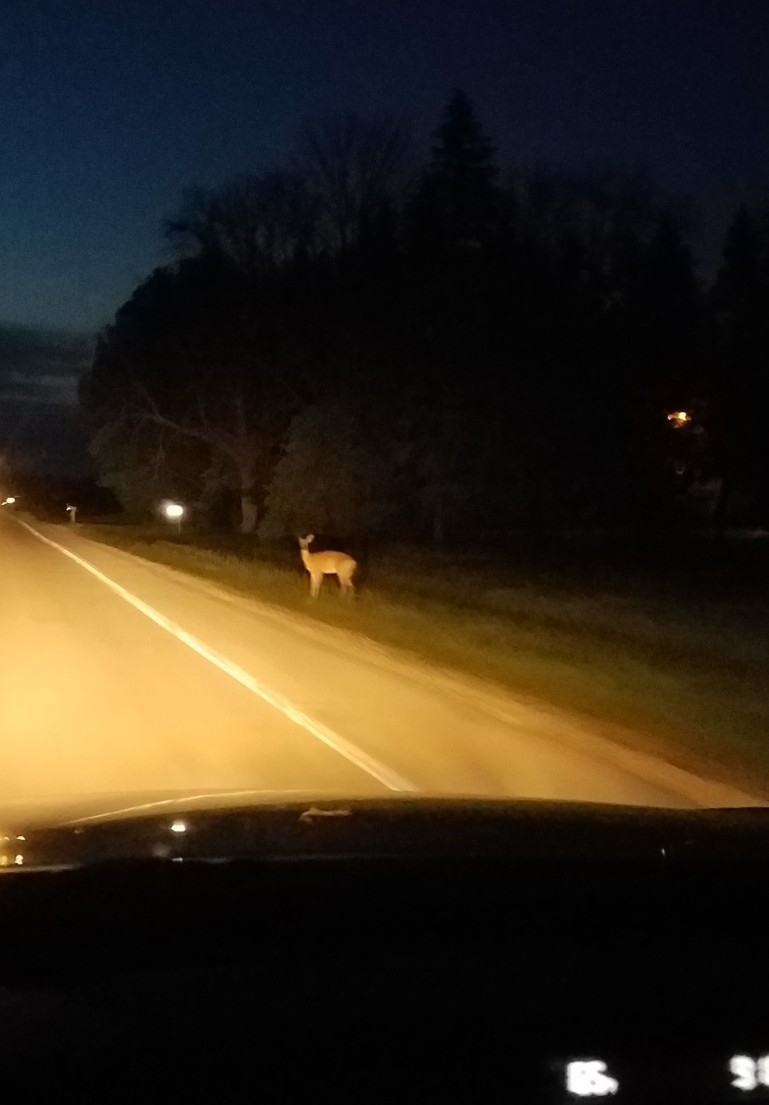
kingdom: Animalia
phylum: Chordata
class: Mammalia
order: Artiodactyla
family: Cervidae
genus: Odocoileus
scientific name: Odocoileus virginianus
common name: White-tailed deer
